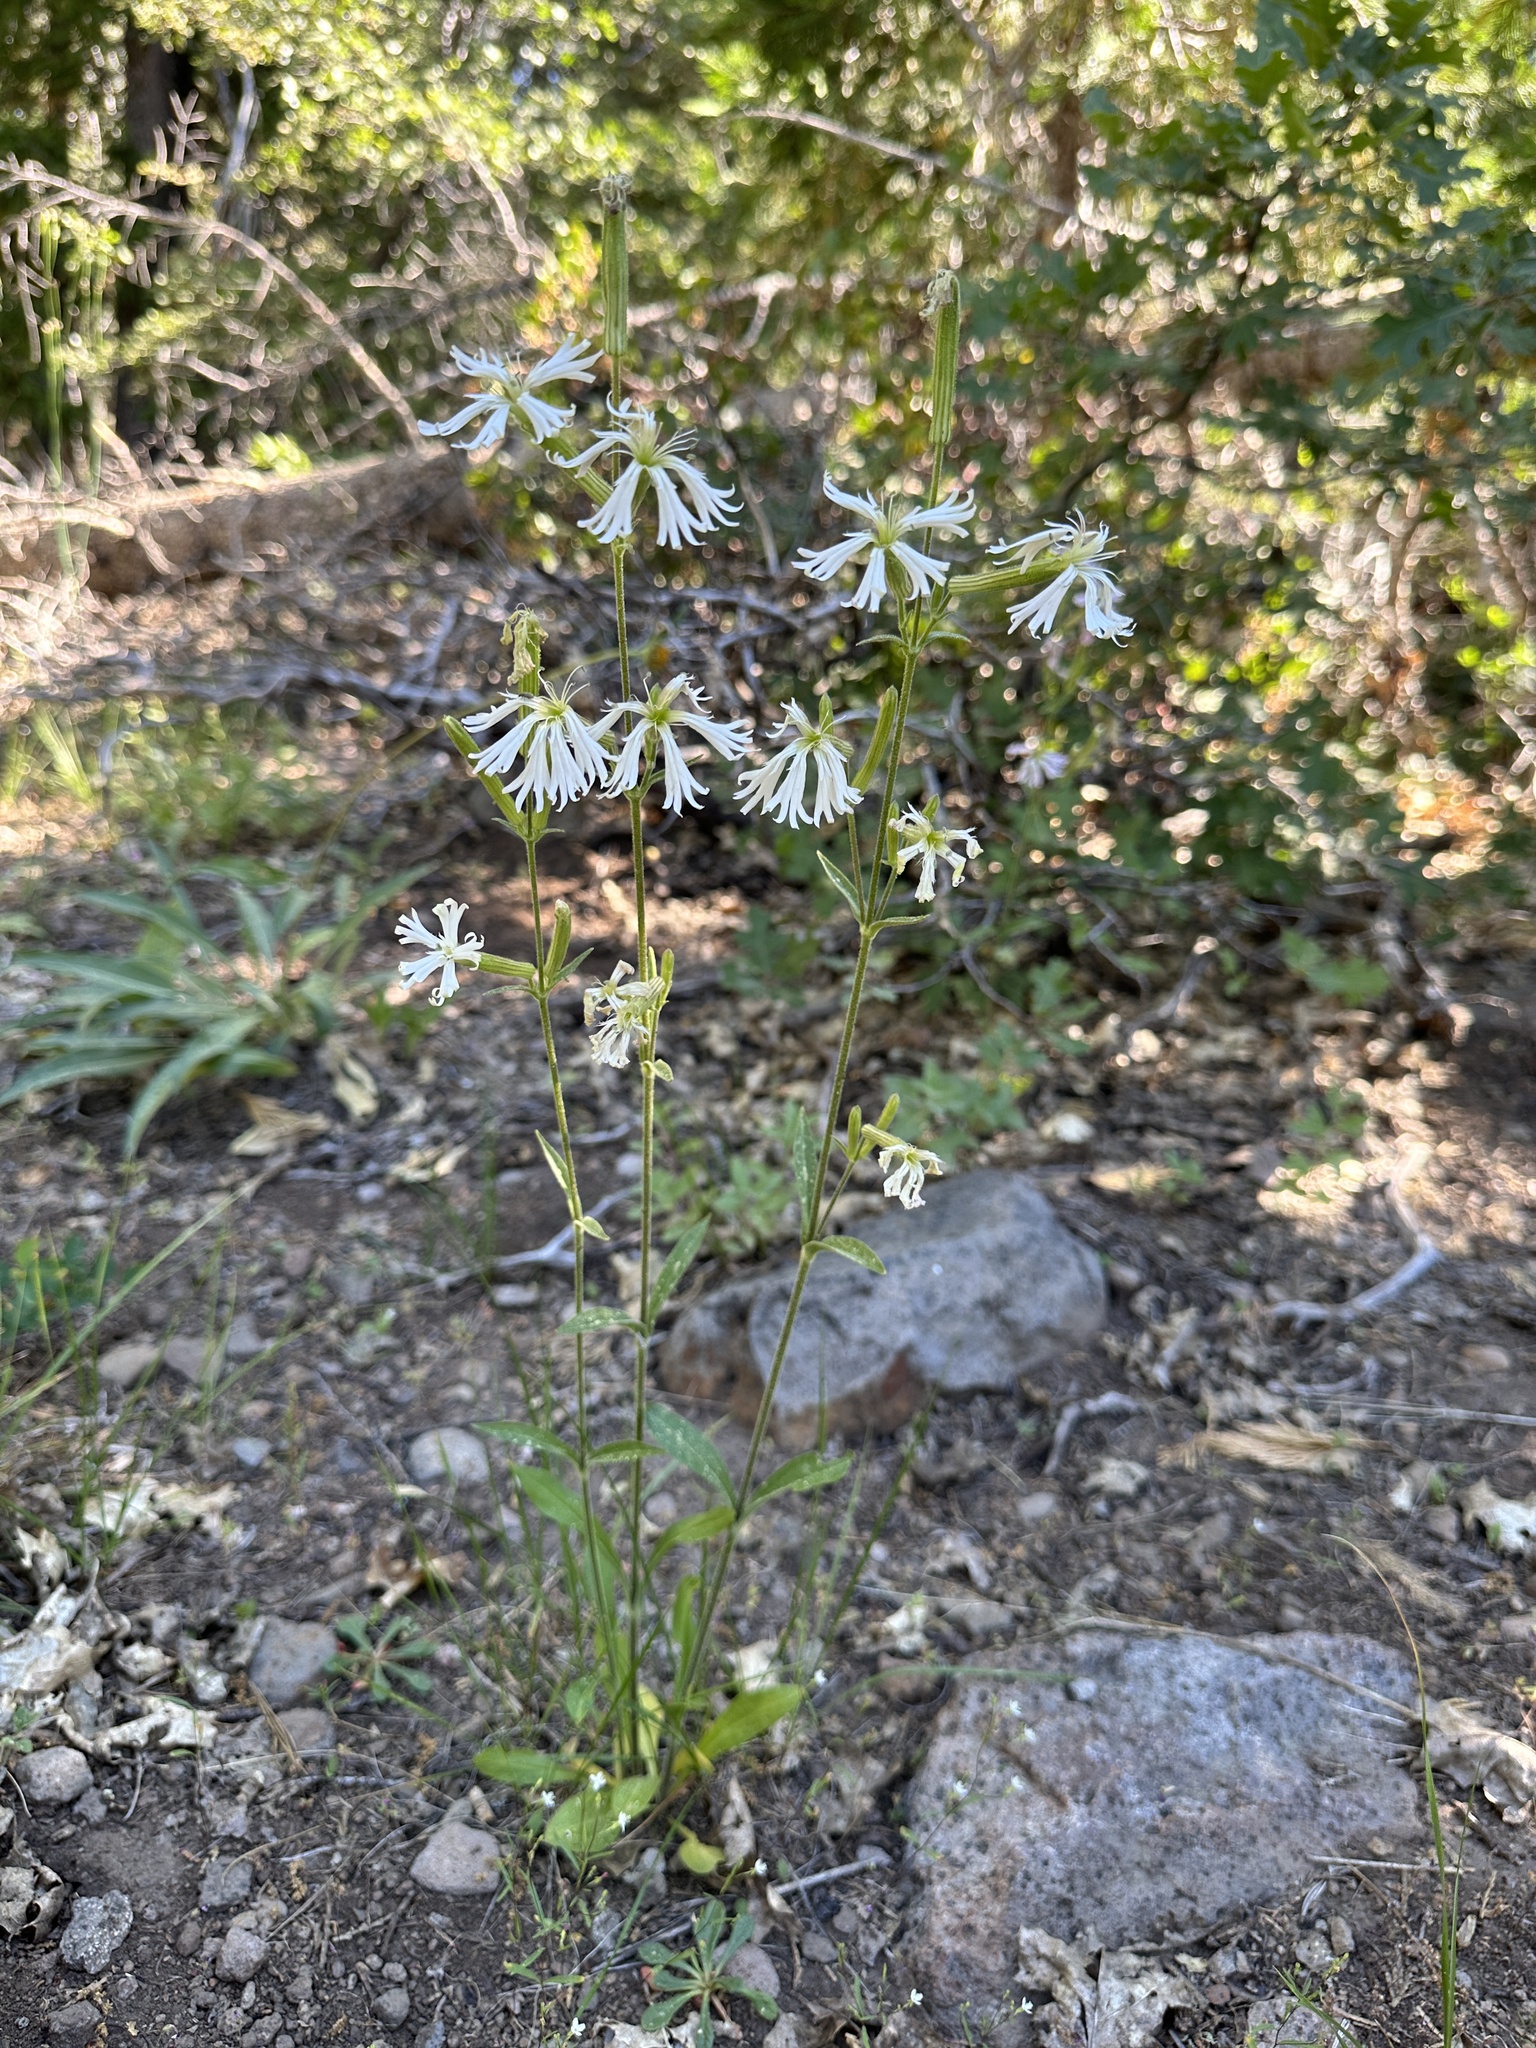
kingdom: Plantae
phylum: Tracheophyta
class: Magnoliopsida
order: Caryophyllales
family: Caryophyllaceae
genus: Silene
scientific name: Silene occidentalis
